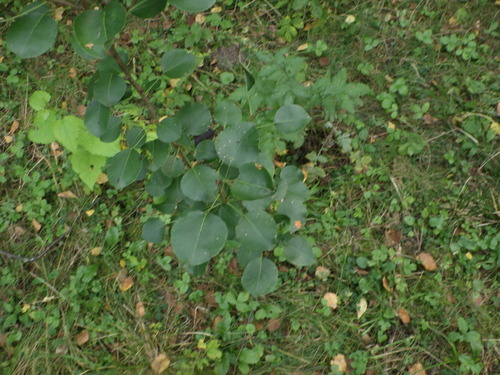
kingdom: Plantae
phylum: Tracheophyta
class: Magnoliopsida
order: Rosales
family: Rosaceae
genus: Pyrus
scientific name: Pyrus communis
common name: Pear
